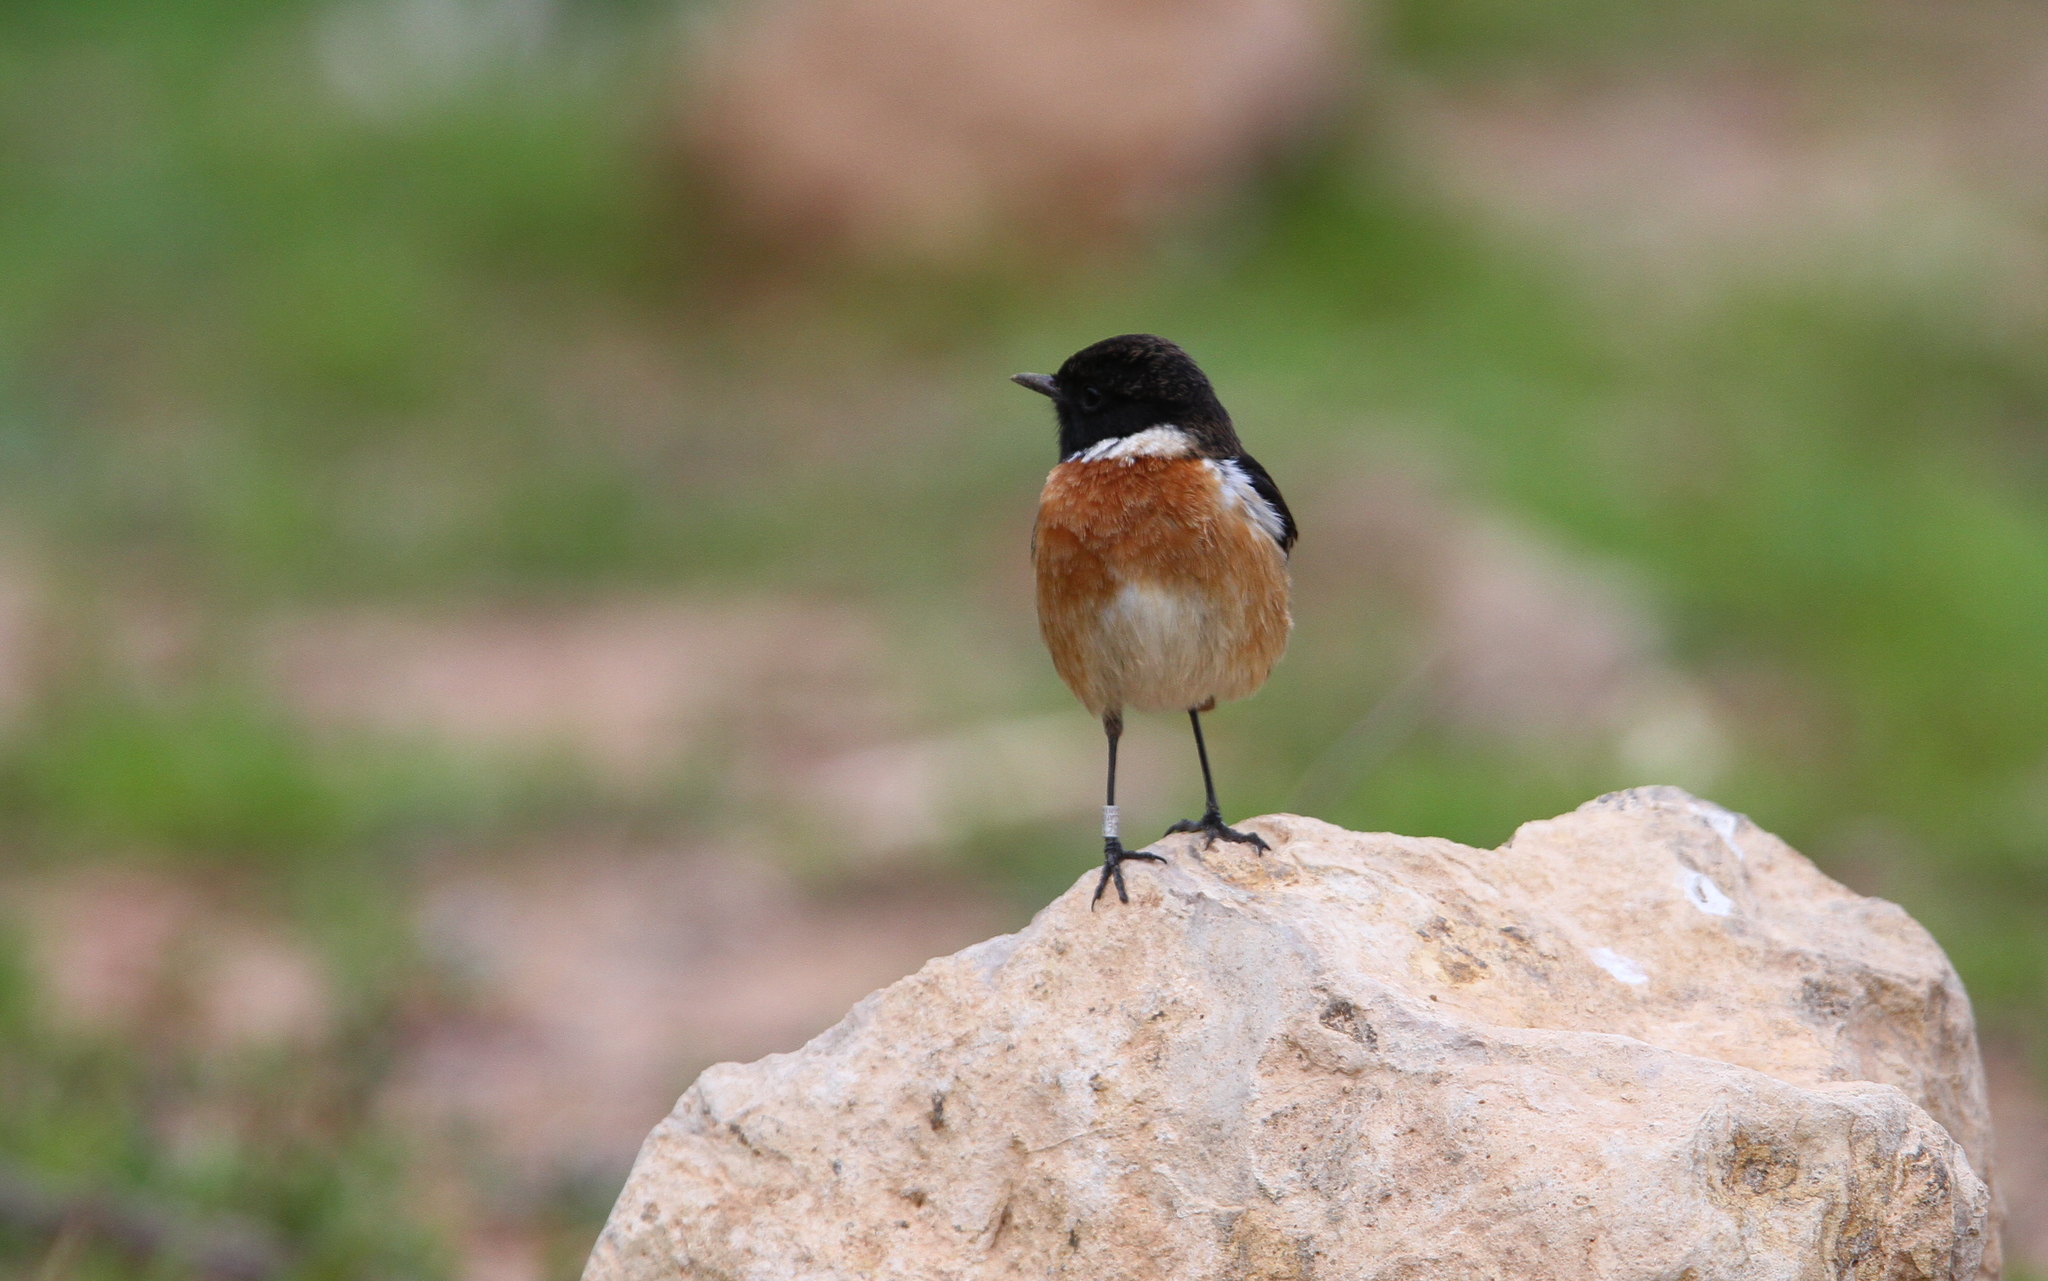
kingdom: Animalia
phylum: Chordata
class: Aves
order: Passeriformes
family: Muscicapidae
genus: Saxicola
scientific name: Saxicola rubicola
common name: European stonechat
